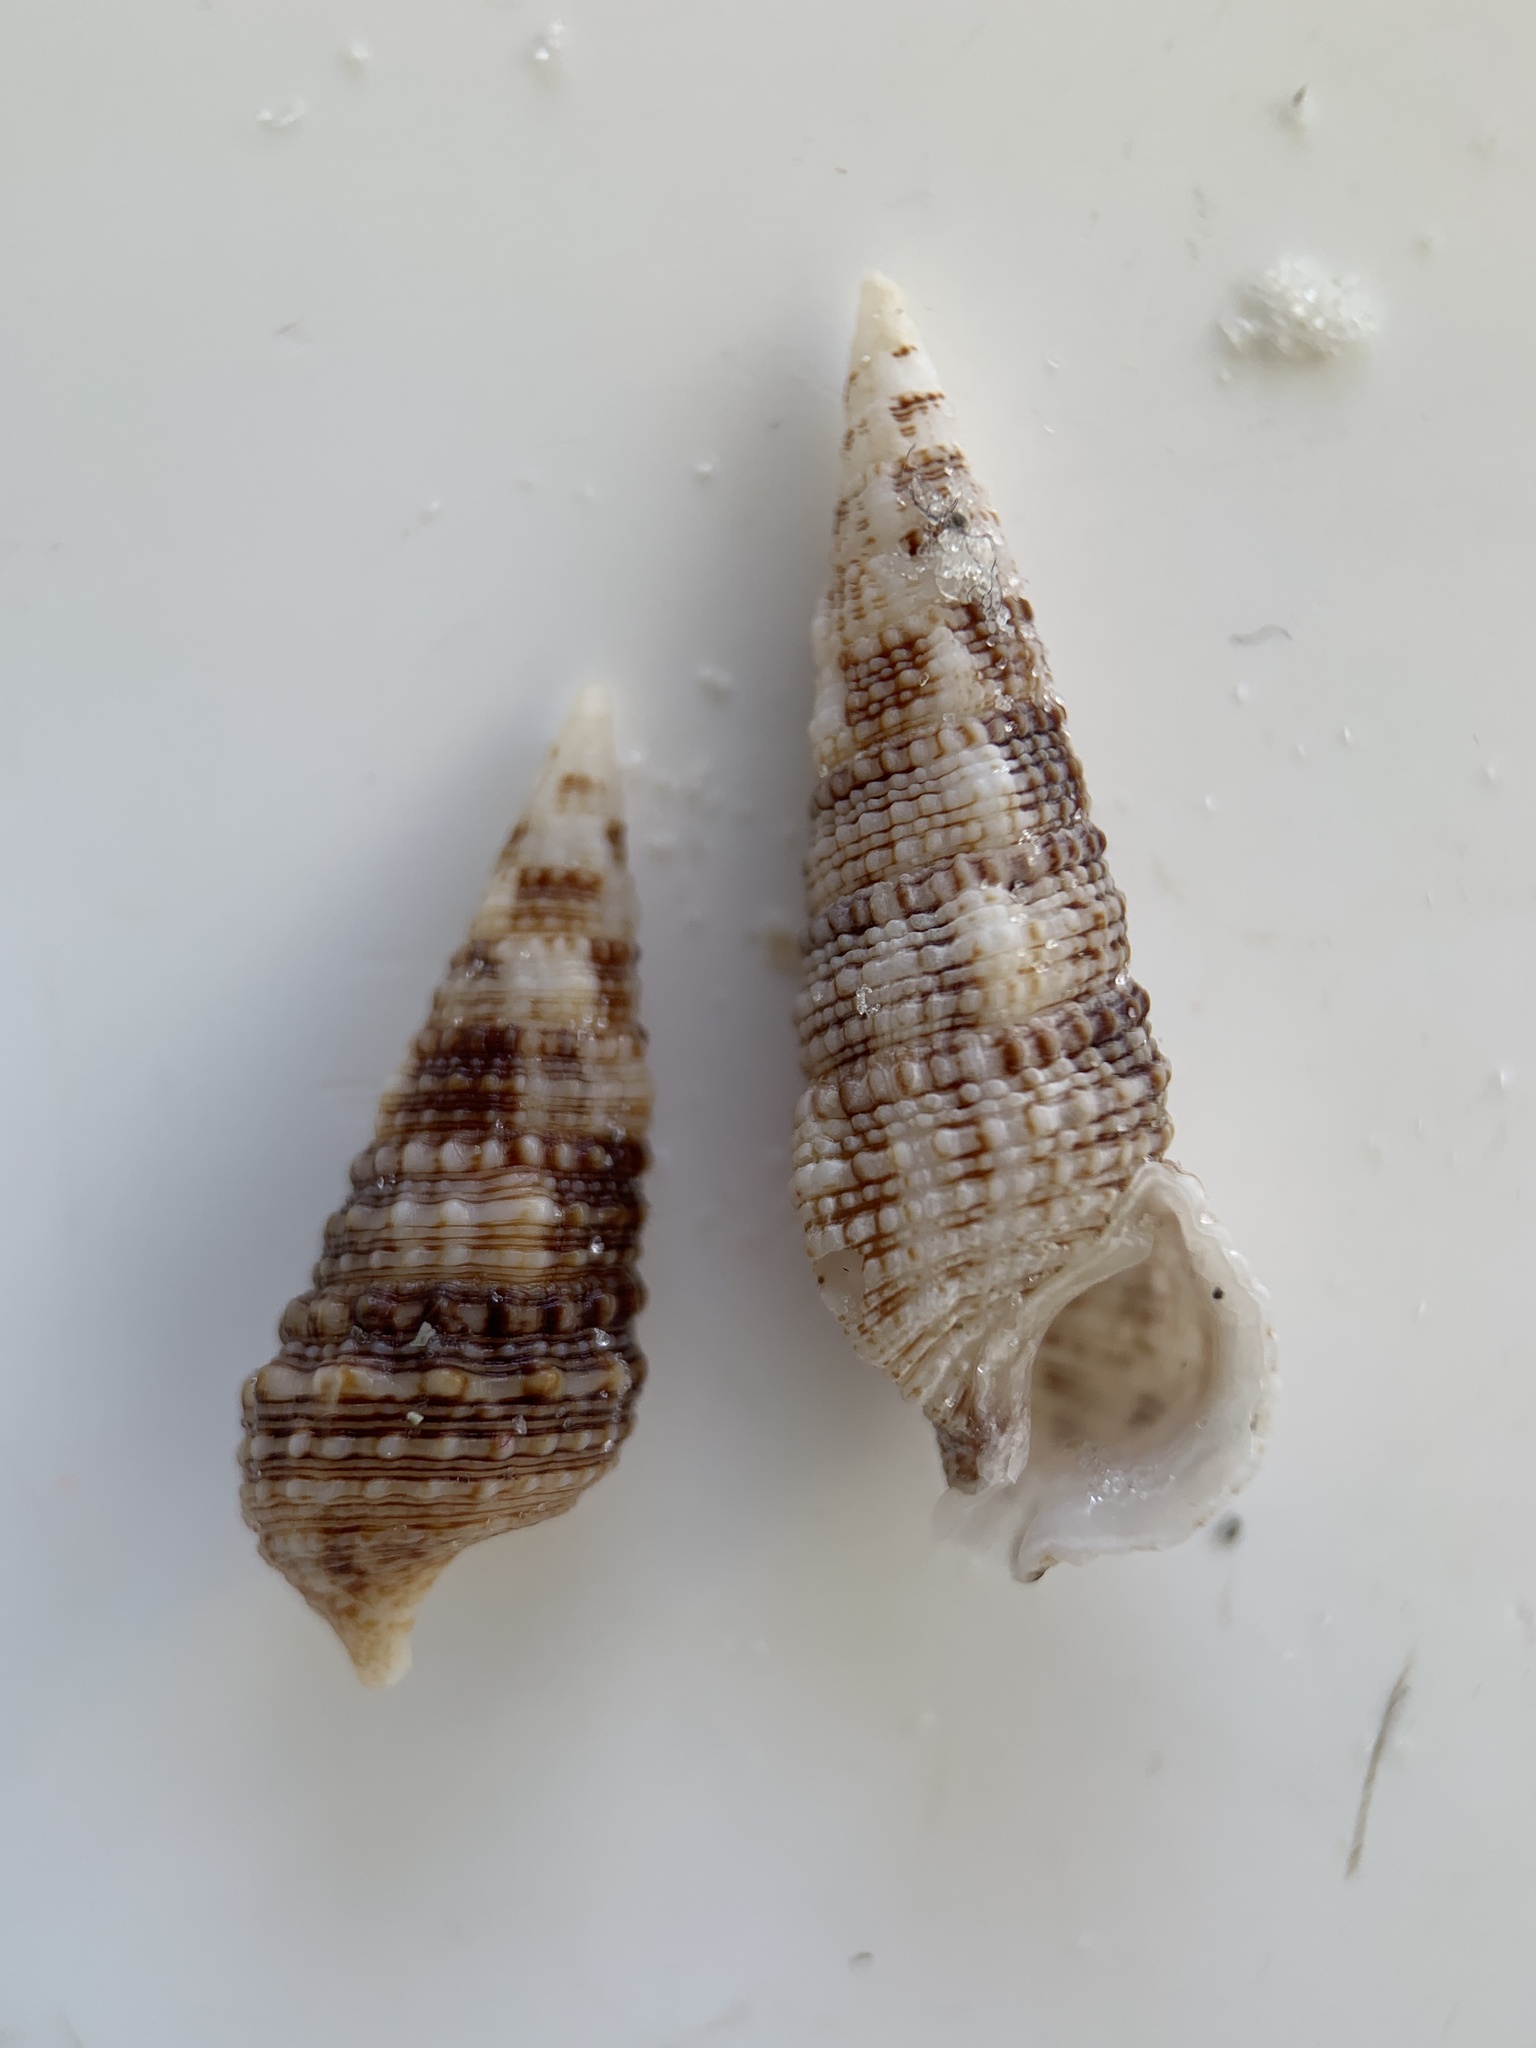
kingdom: Animalia
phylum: Mollusca
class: Gastropoda
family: Cerithiidae
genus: Cerithium
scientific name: Cerithium atratum
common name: Dark cerith
